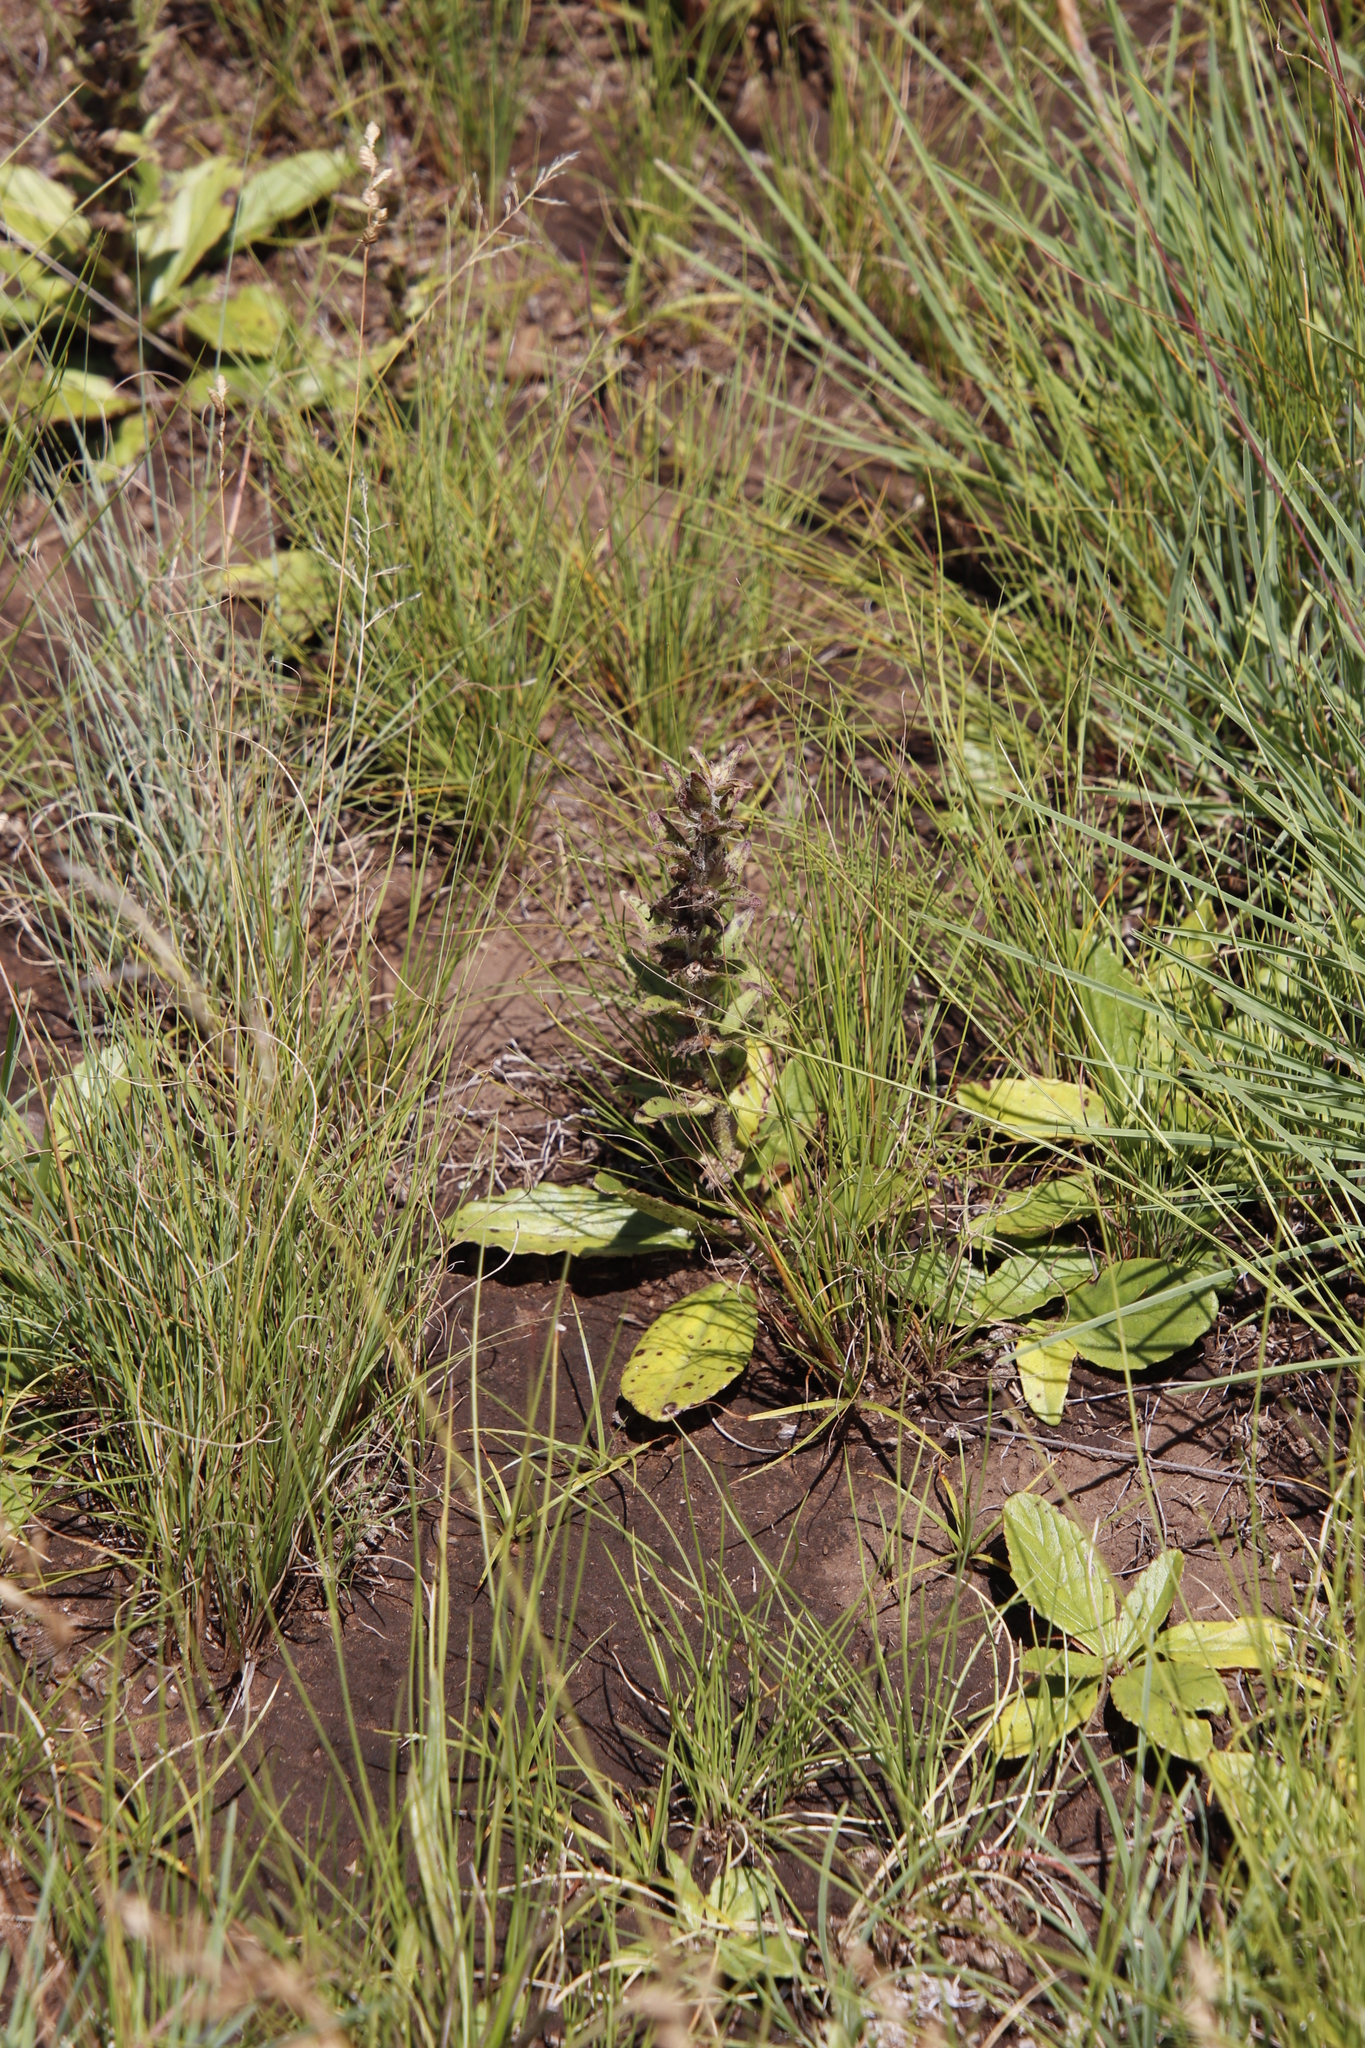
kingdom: Plantae
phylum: Tracheophyta
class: Magnoliopsida
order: Lamiales
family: Lamiaceae
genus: Ajuga
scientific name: Ajuga ophrydis
